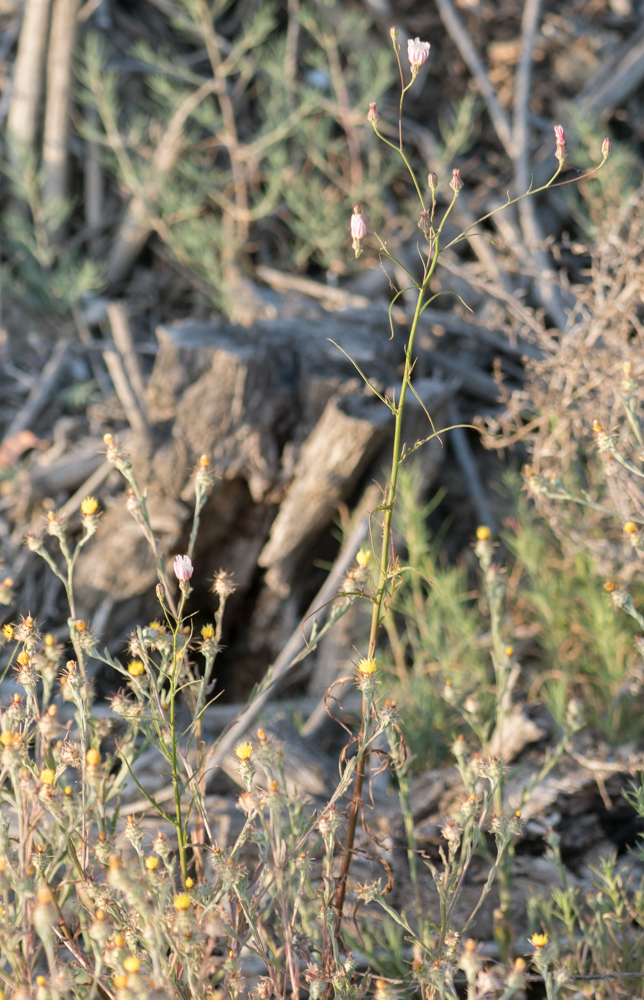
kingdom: Plantae
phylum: Tracheophyta
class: Magnoliopsida
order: Asterales
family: Asteraceae
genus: Malacothrix
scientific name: Malacothrix saxatilis
